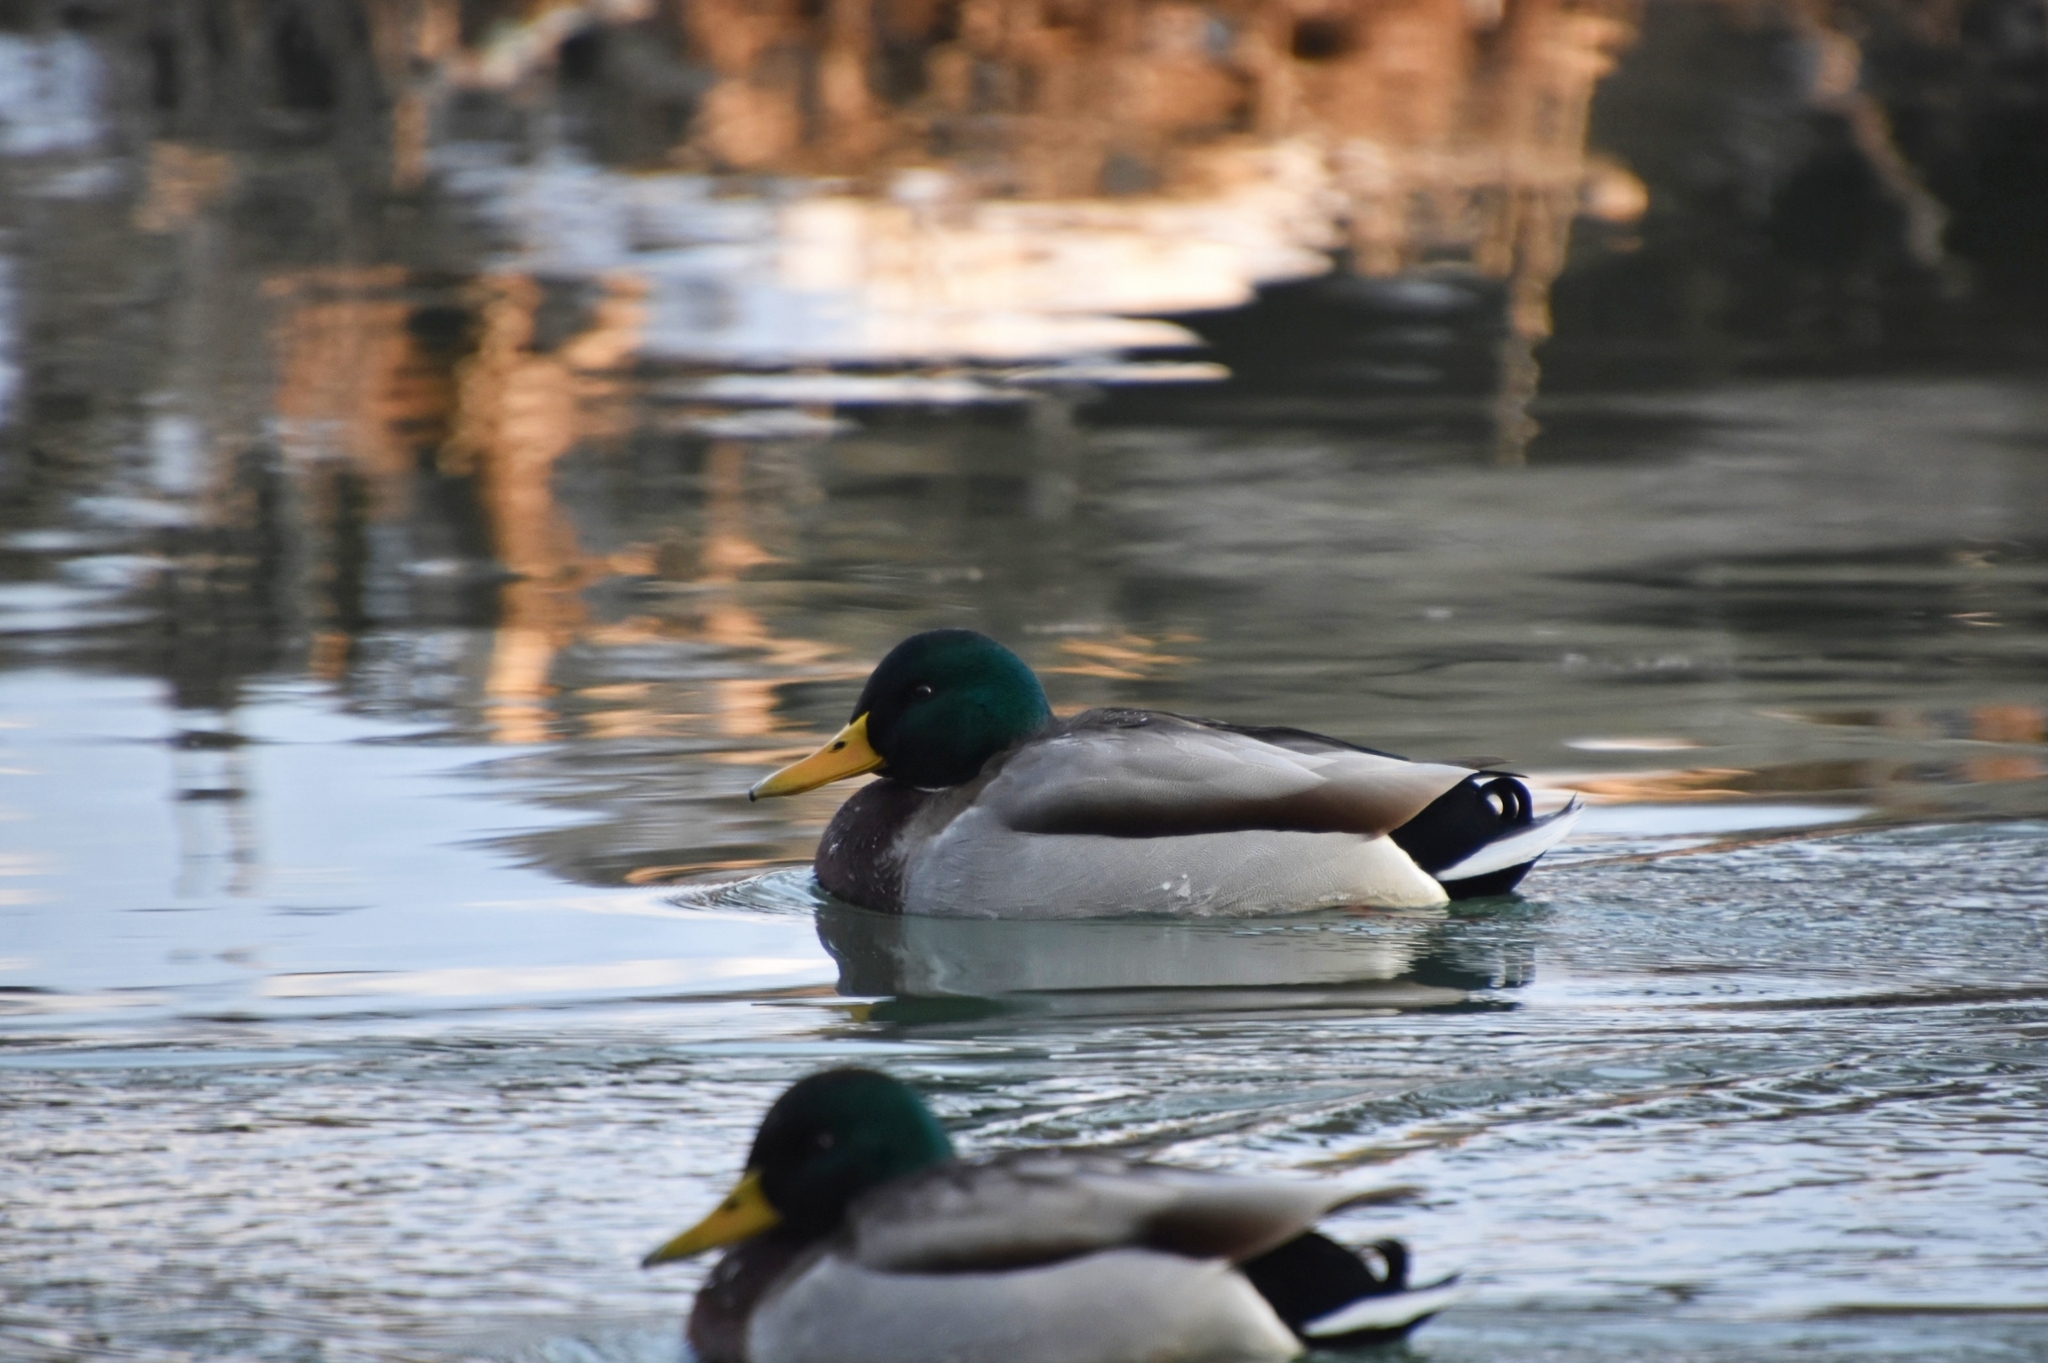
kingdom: Animalia
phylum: Chordata
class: Aves
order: Anseriformes
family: Anatidae
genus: Anas
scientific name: Anas platyrhynchos
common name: Mallard
